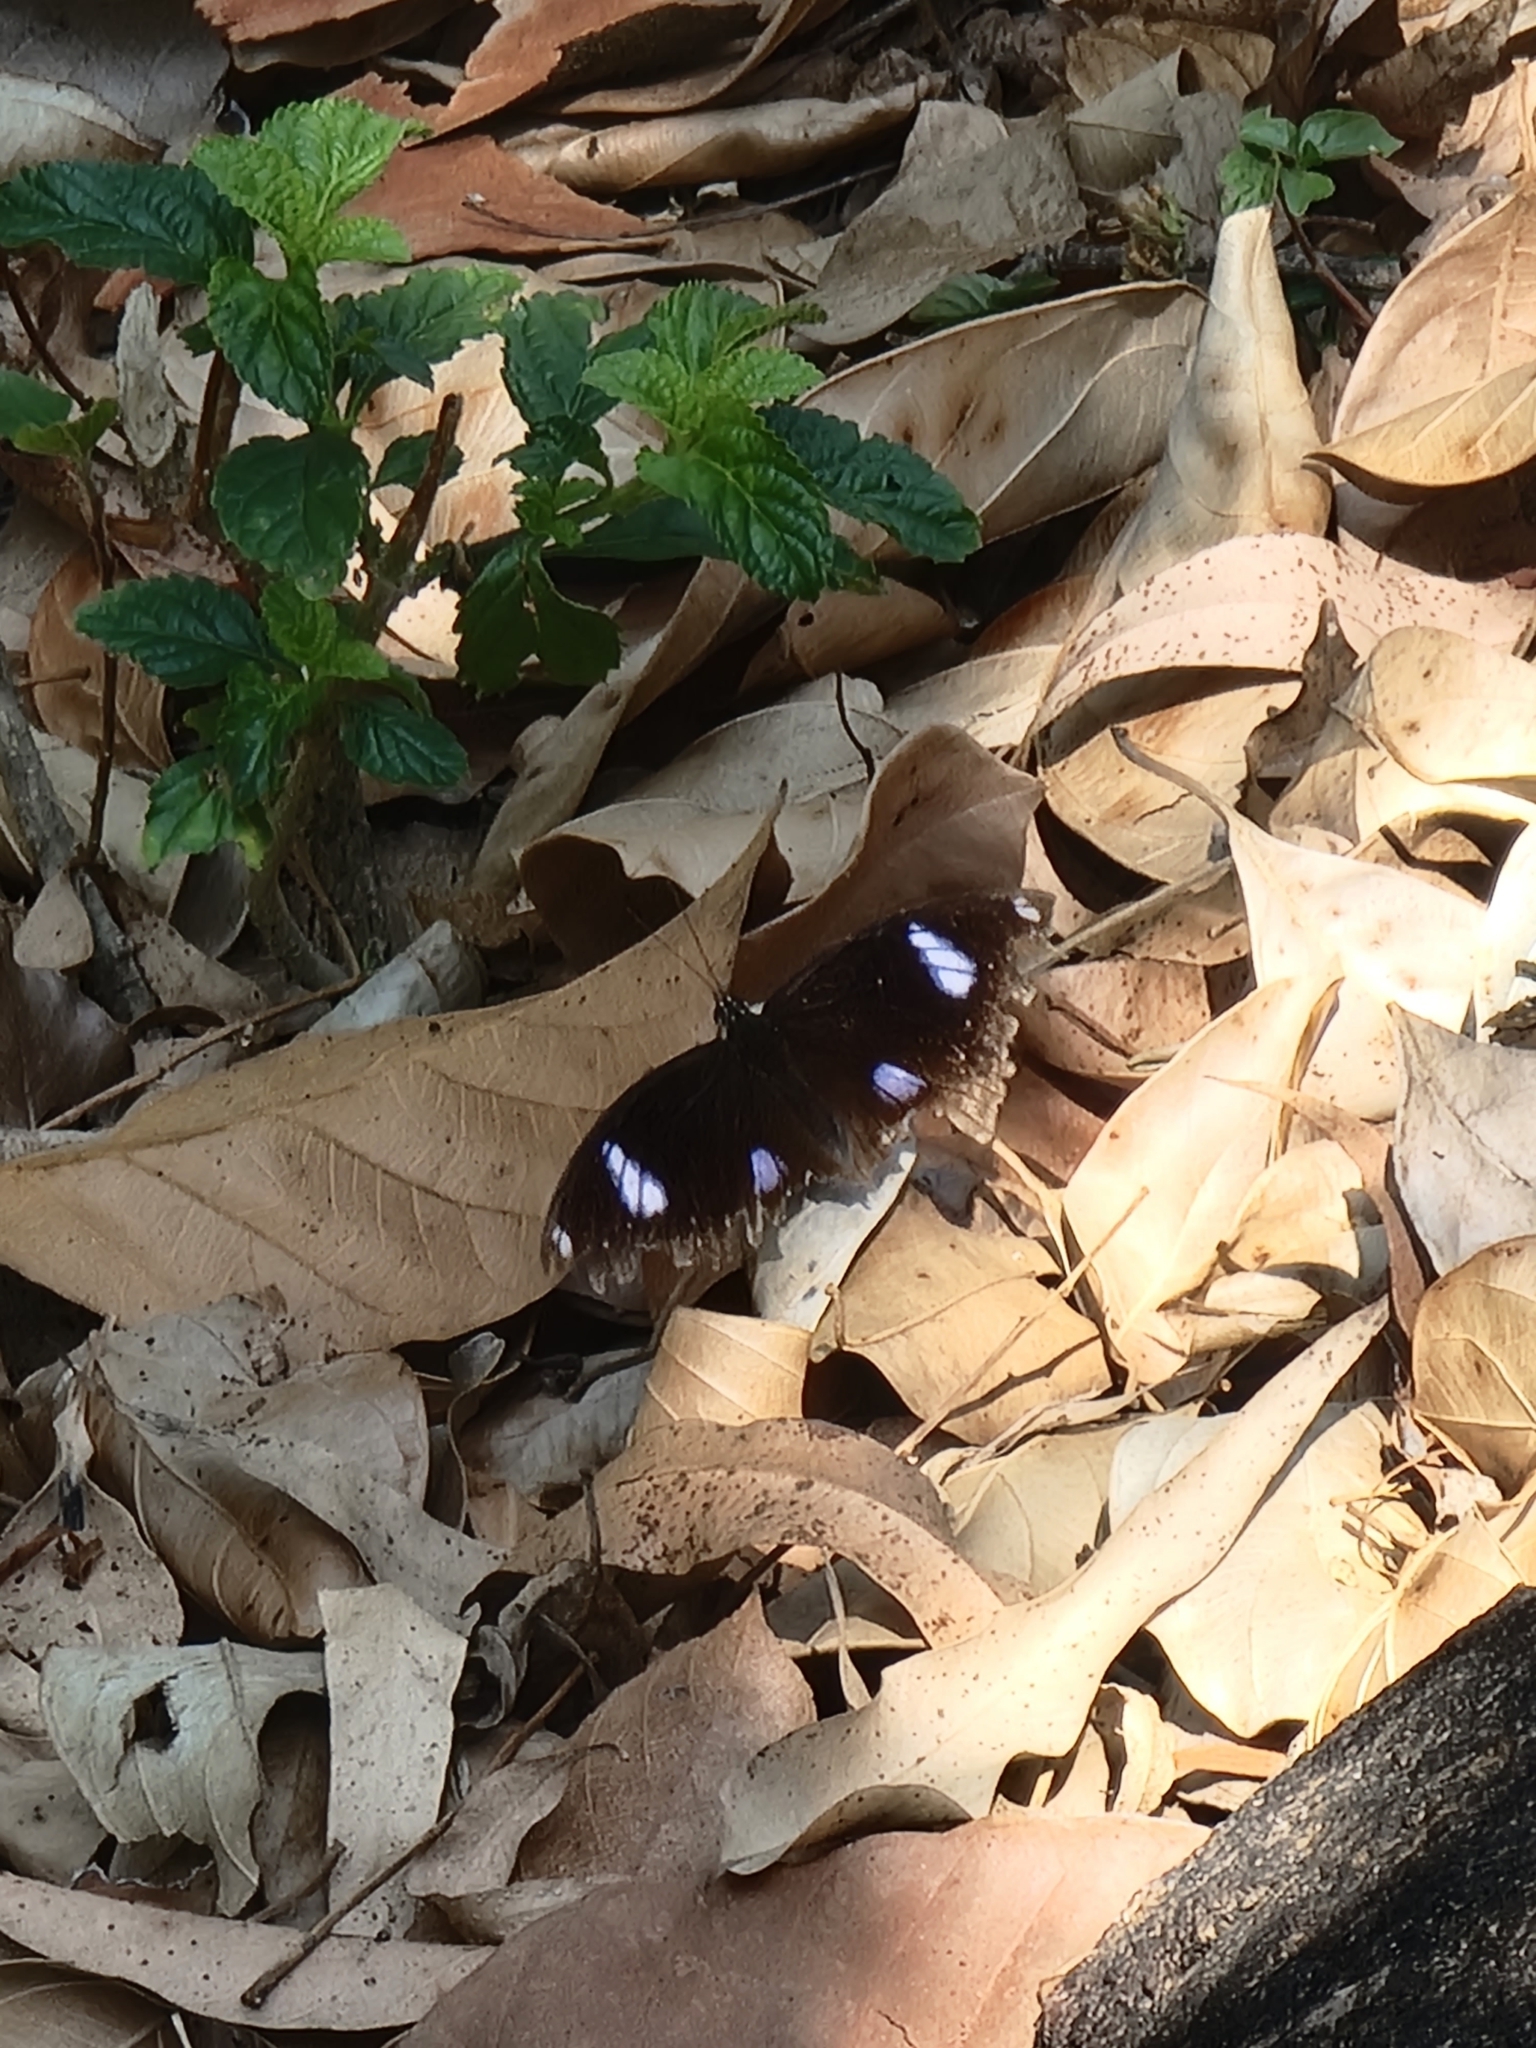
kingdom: Animalia
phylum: Arthropoda
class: Insecta
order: Lepidoptera
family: Nymphalidae
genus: Hypolimnas
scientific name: Hypolimnas bolina
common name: Great eggfly
